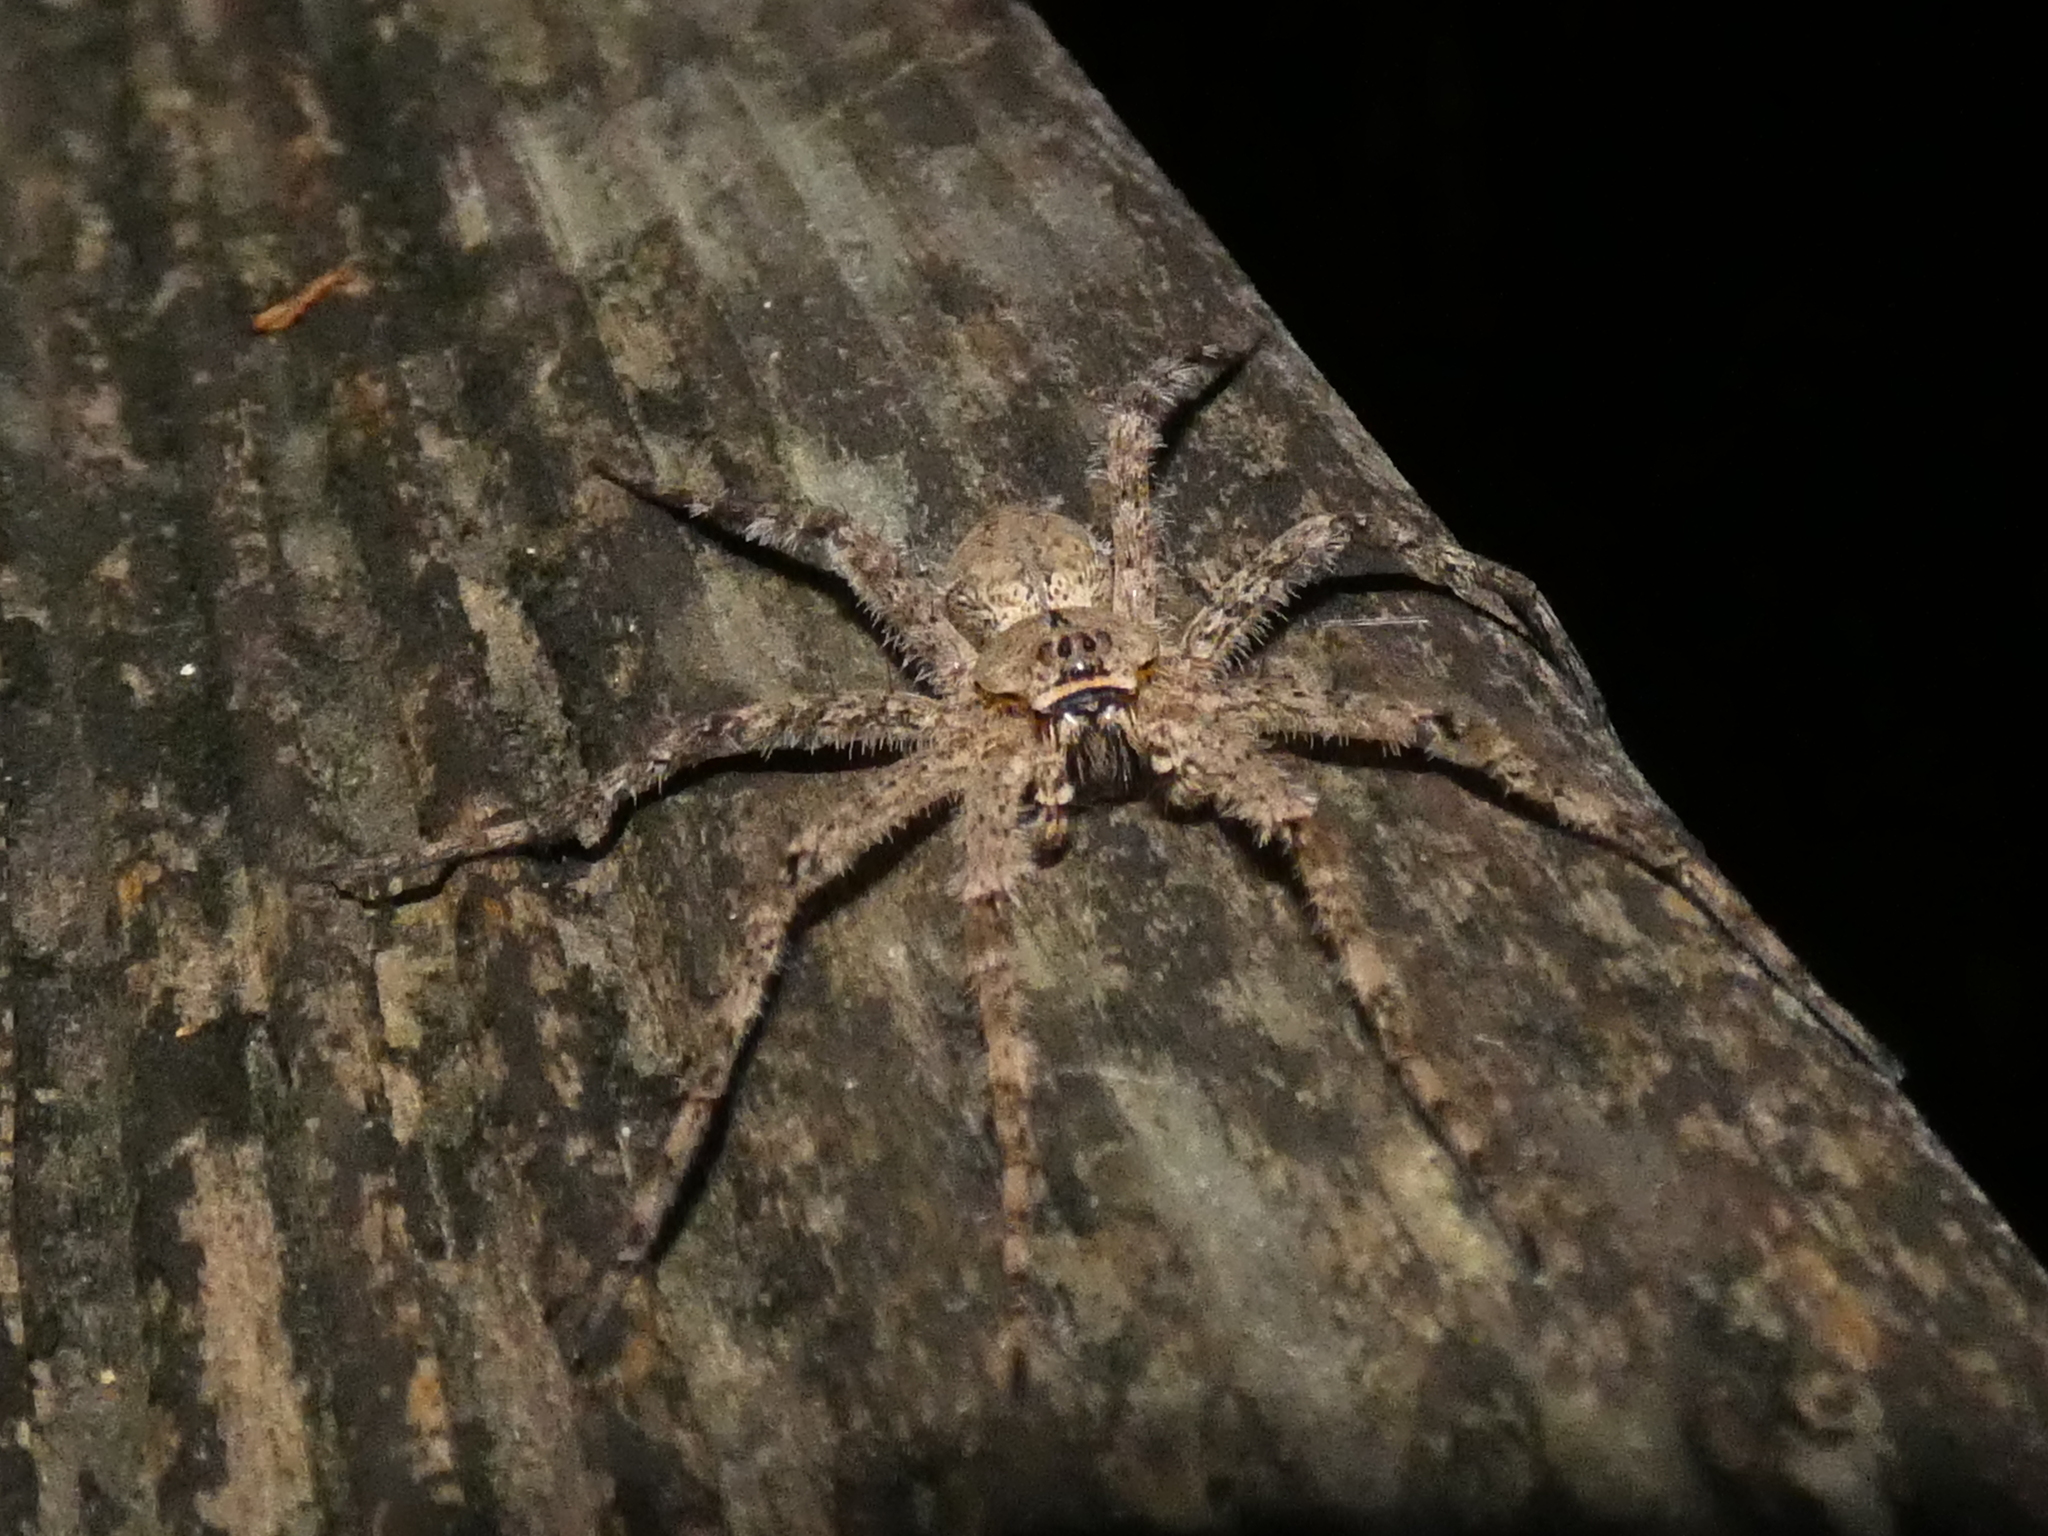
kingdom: Animalia
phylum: Arthropoda
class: Arachnida
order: Araneae
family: Pisauridae
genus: Dolomedes
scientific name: Dolomedes albineus
